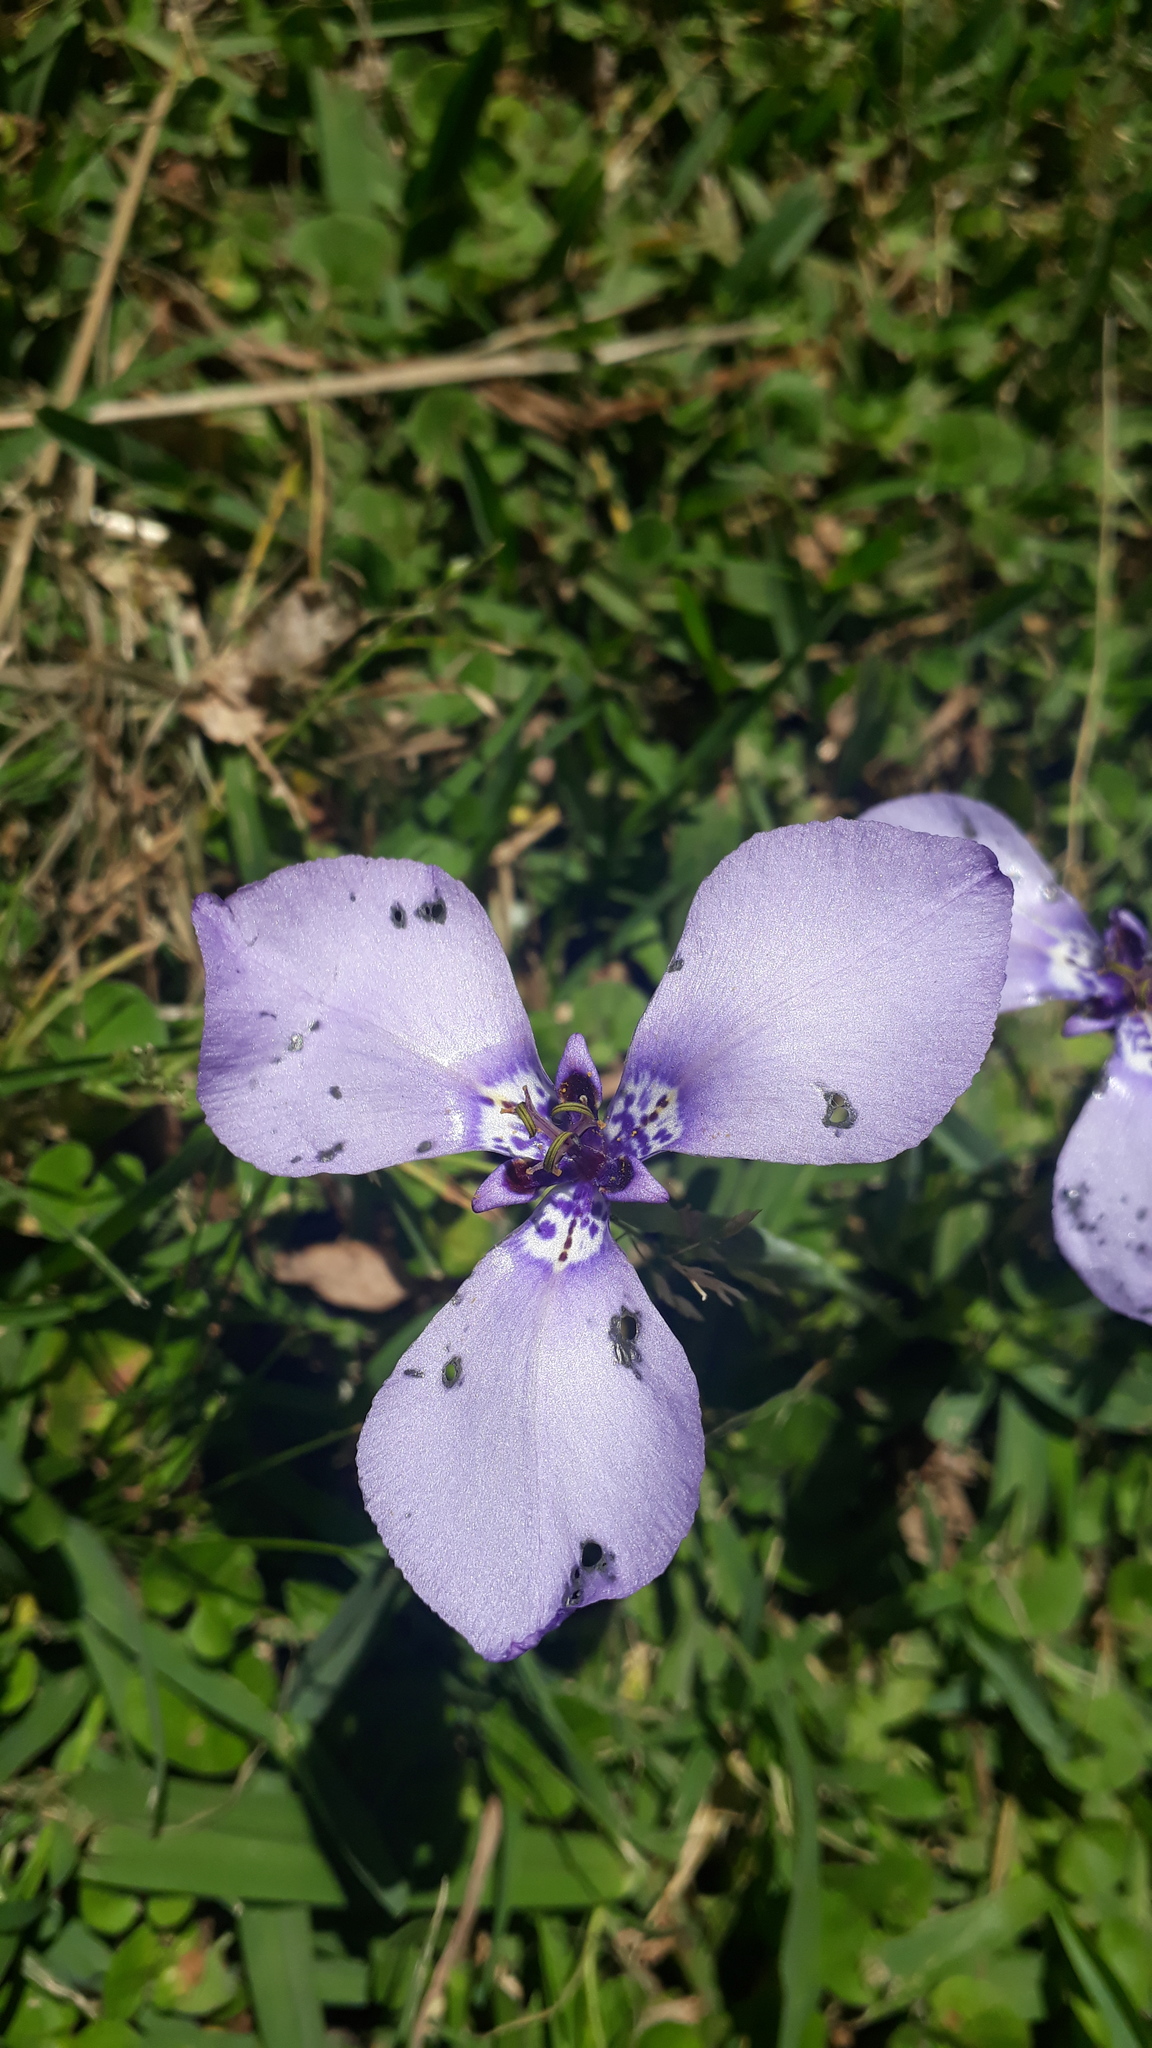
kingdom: Plantae
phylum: Tracheophyta
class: Liliopsida
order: Asparagales
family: Iridaceae
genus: Herbertia
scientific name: Herbertia lahue
